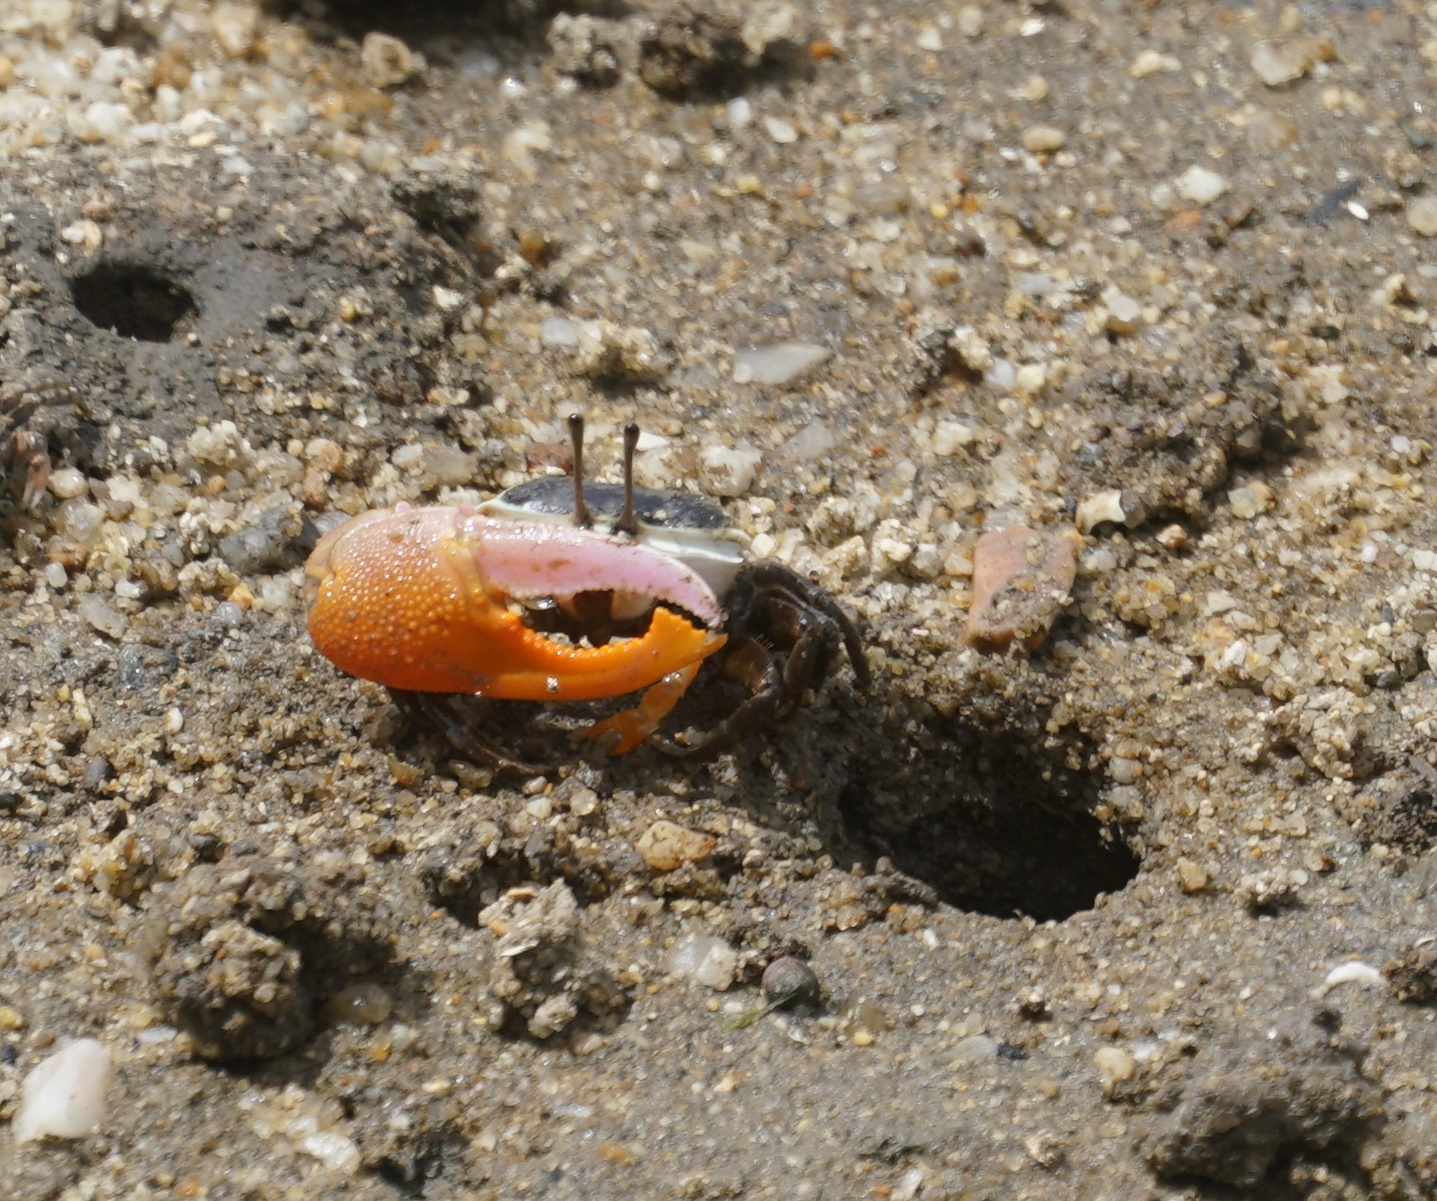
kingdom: Animalia
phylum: Arthropoda
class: Malacostraca
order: Decapoda
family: Ocypodidae
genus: Gelasimus
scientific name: Gelasimus vomeris
